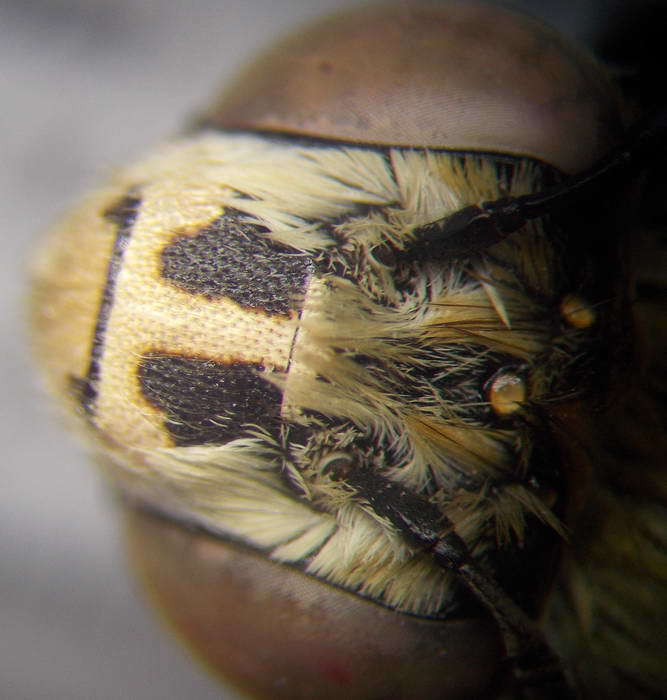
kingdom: Animalia
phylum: Arthropoda
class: Insecta
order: Hymenoptera
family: Apidae
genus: Amegilla
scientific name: Amegilla quadrifasciata
